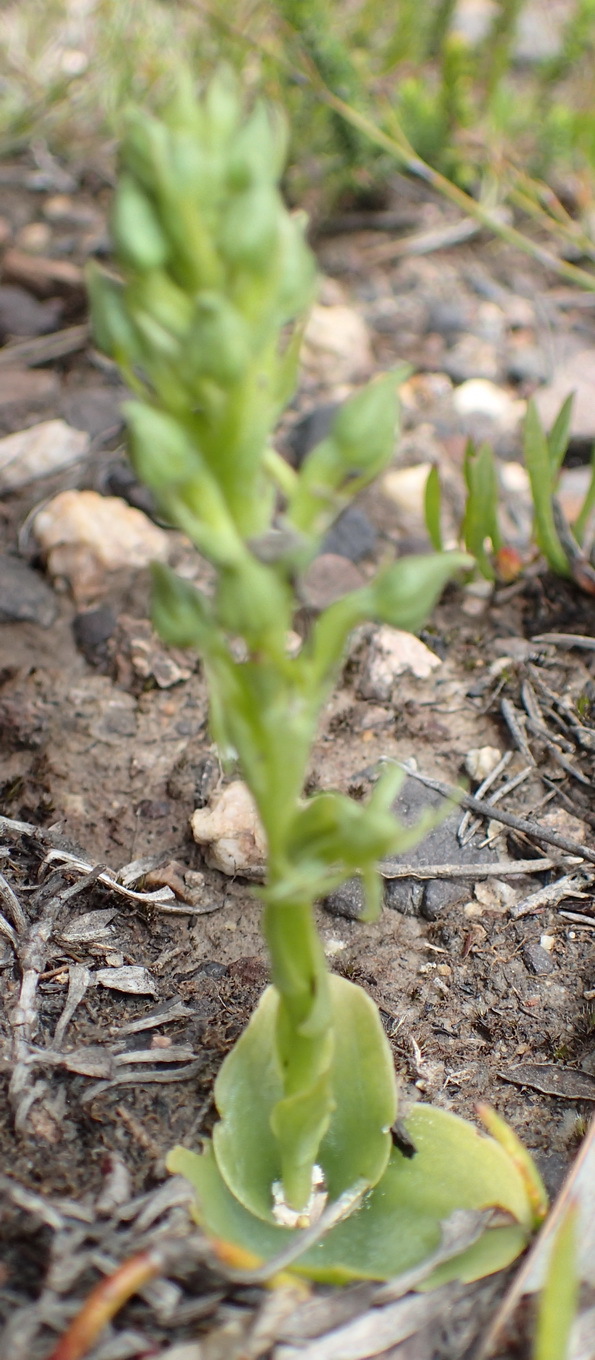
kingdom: Plantae
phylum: Tracheophyta
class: Liliopsida
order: Asparagales
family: Orchidaceae
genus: Habenaria
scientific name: Habenaria lithophila
